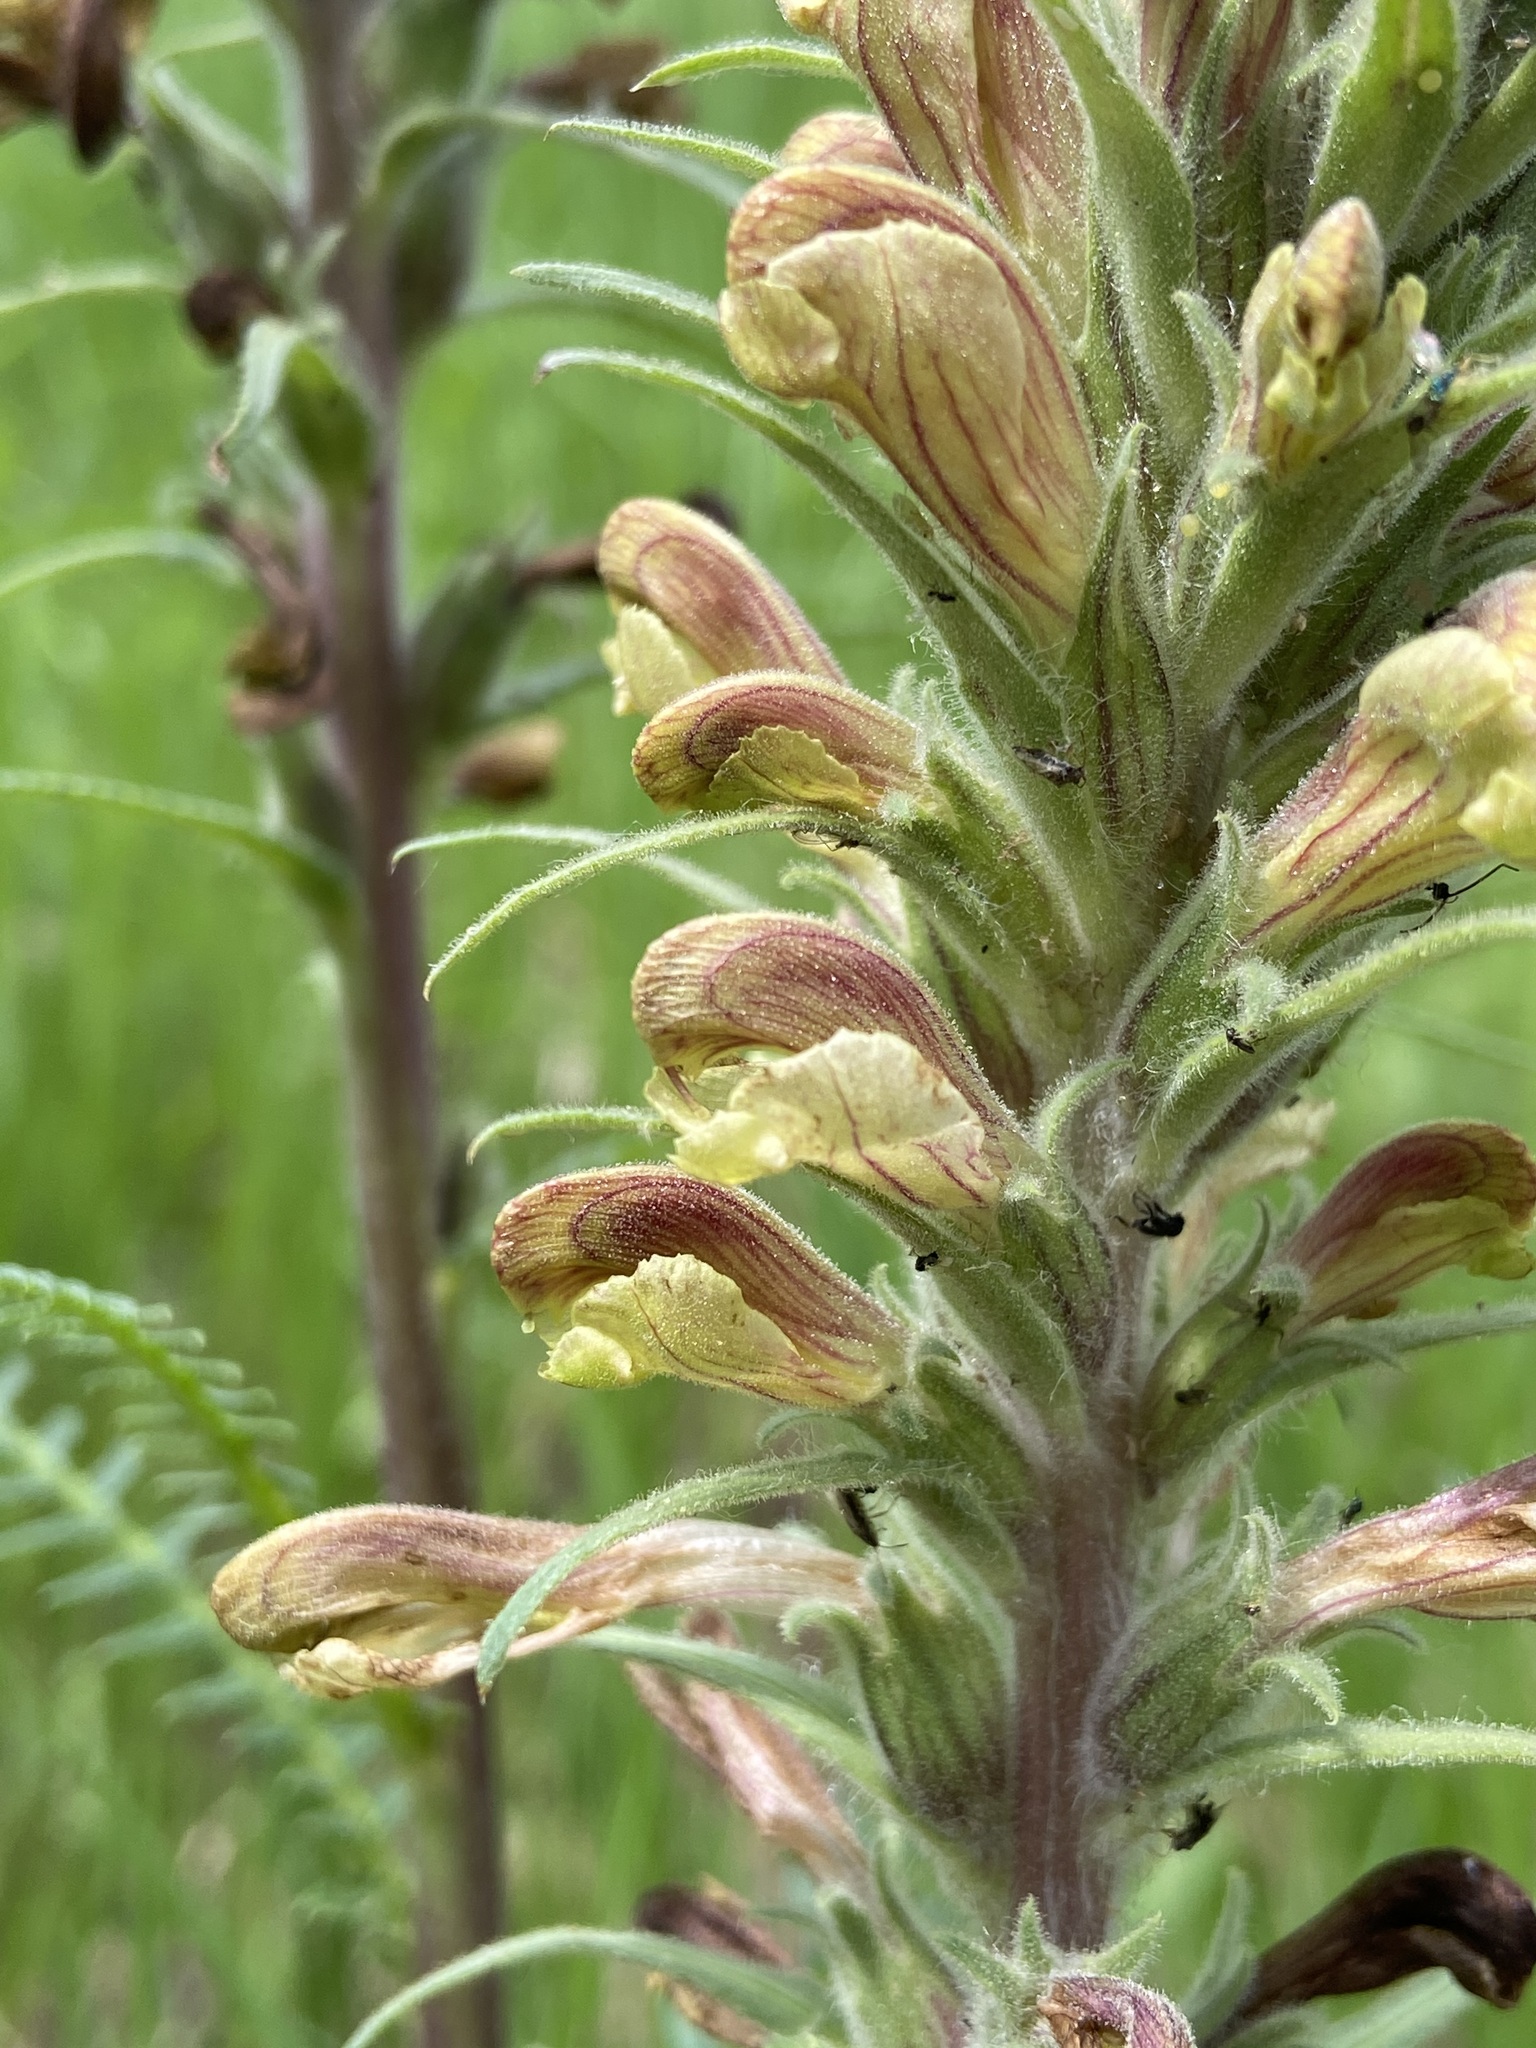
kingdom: Plantae
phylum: Tracheophyta
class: Magnoliopsida
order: Lamiales
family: Orobanchaceae
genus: Pedicularis
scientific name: Pedicularis procera
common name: Gray's lousewort
